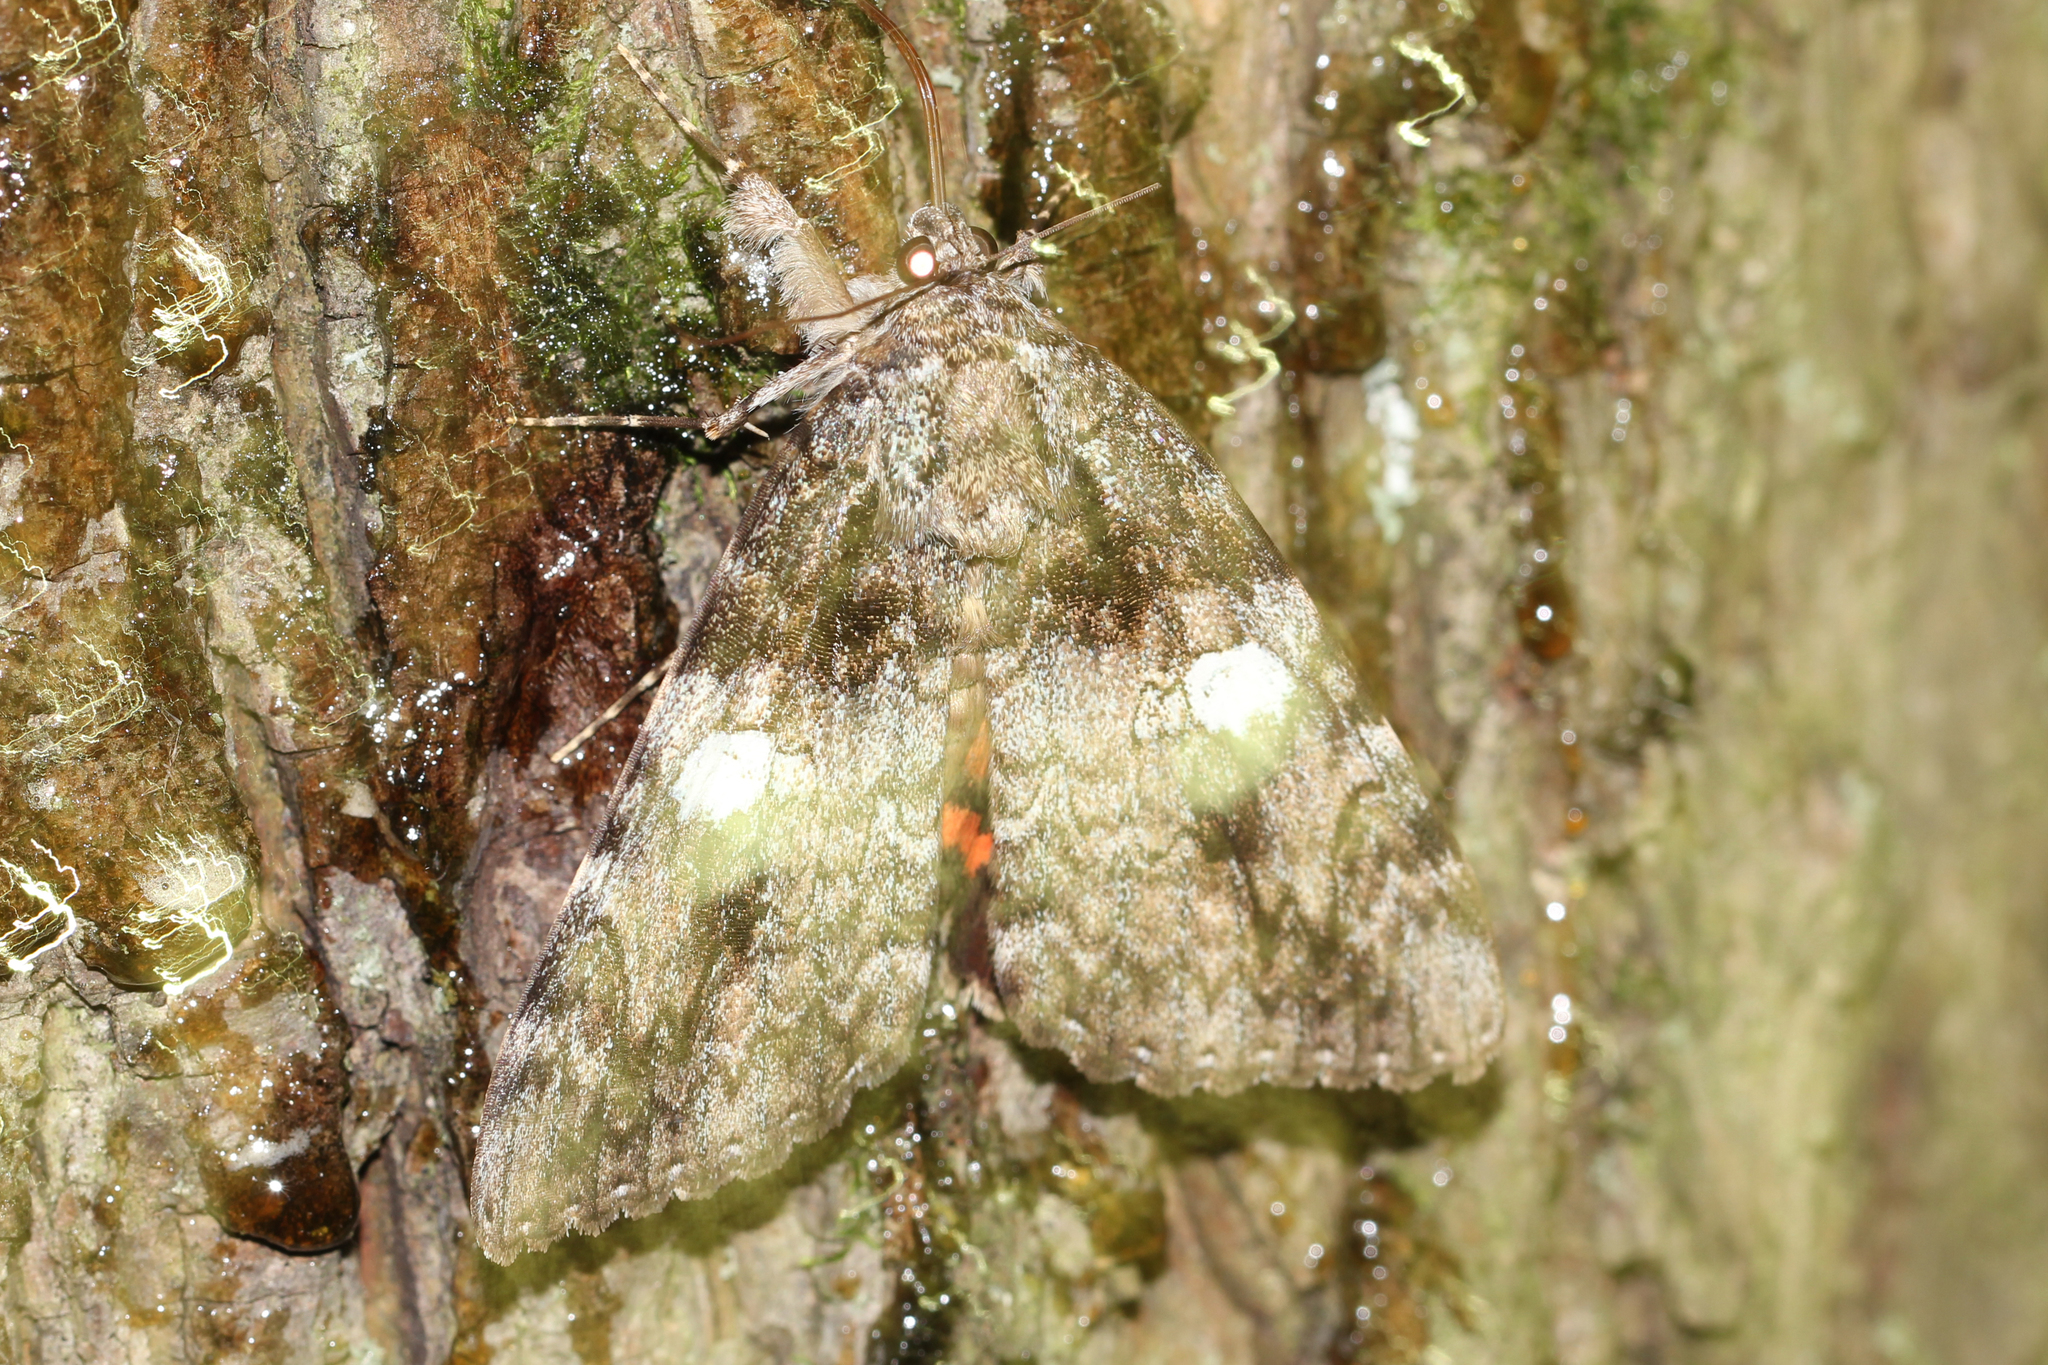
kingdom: Animalia
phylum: Arthropoda
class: Insecta
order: Lepidoptera
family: Erebidae
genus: Catocala
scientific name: Catocala ilia
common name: Ilia underwing
